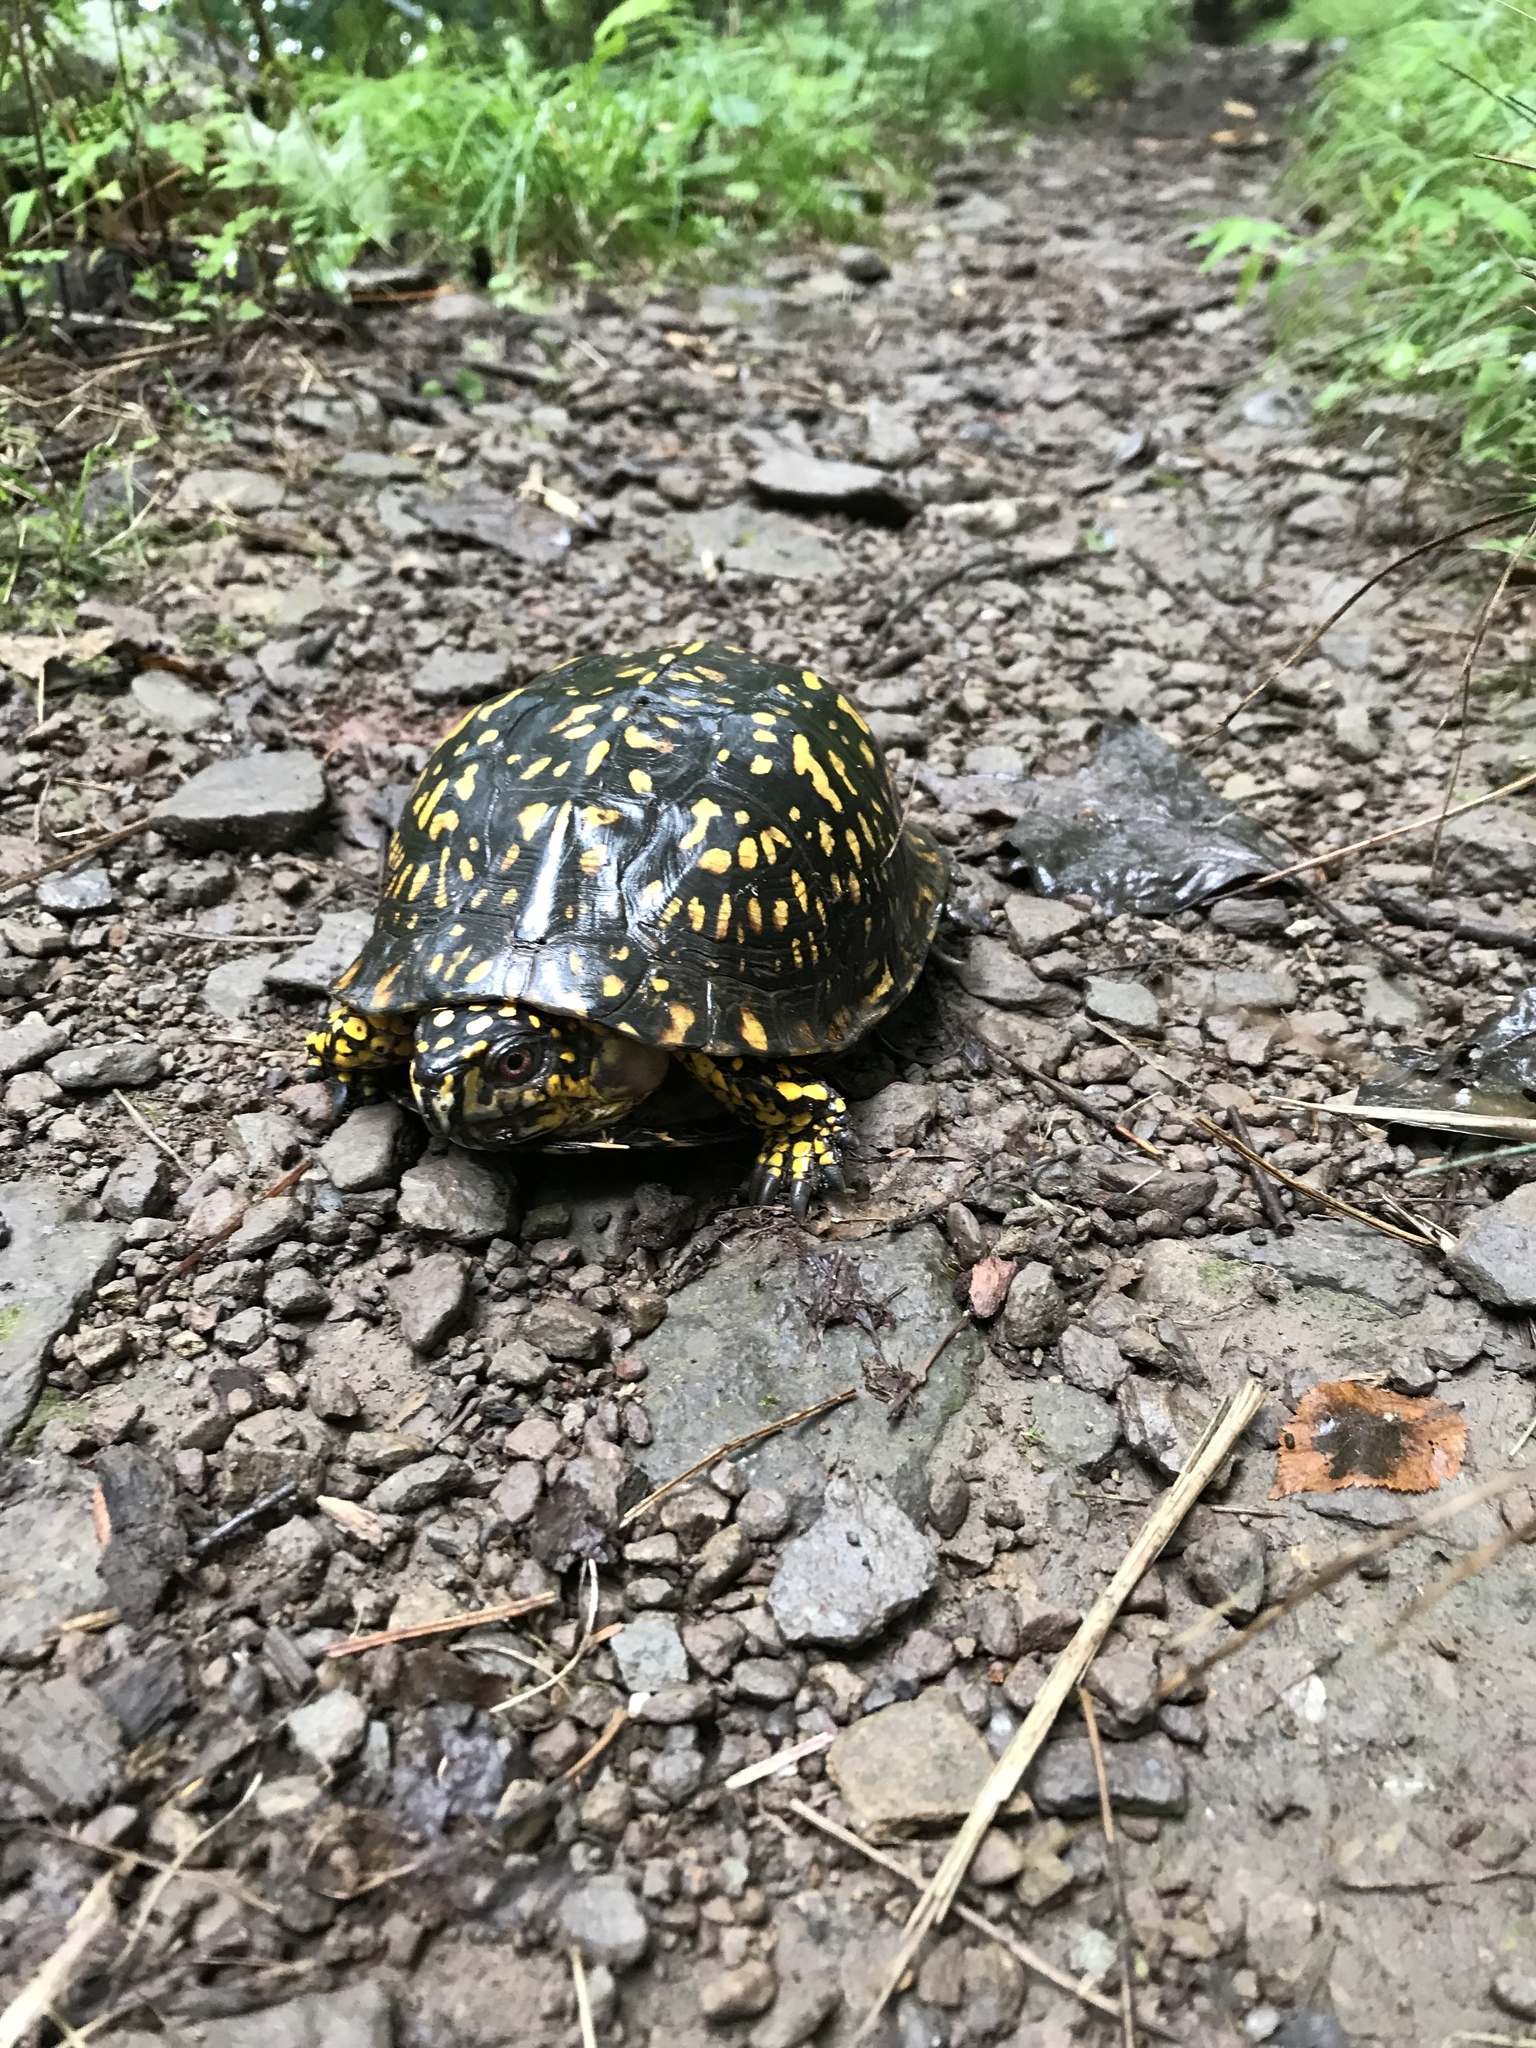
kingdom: Animalia
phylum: Chordata
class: Testudines
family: Emydidae
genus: Terrapene
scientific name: Terrapene carolina
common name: Common box turtle
